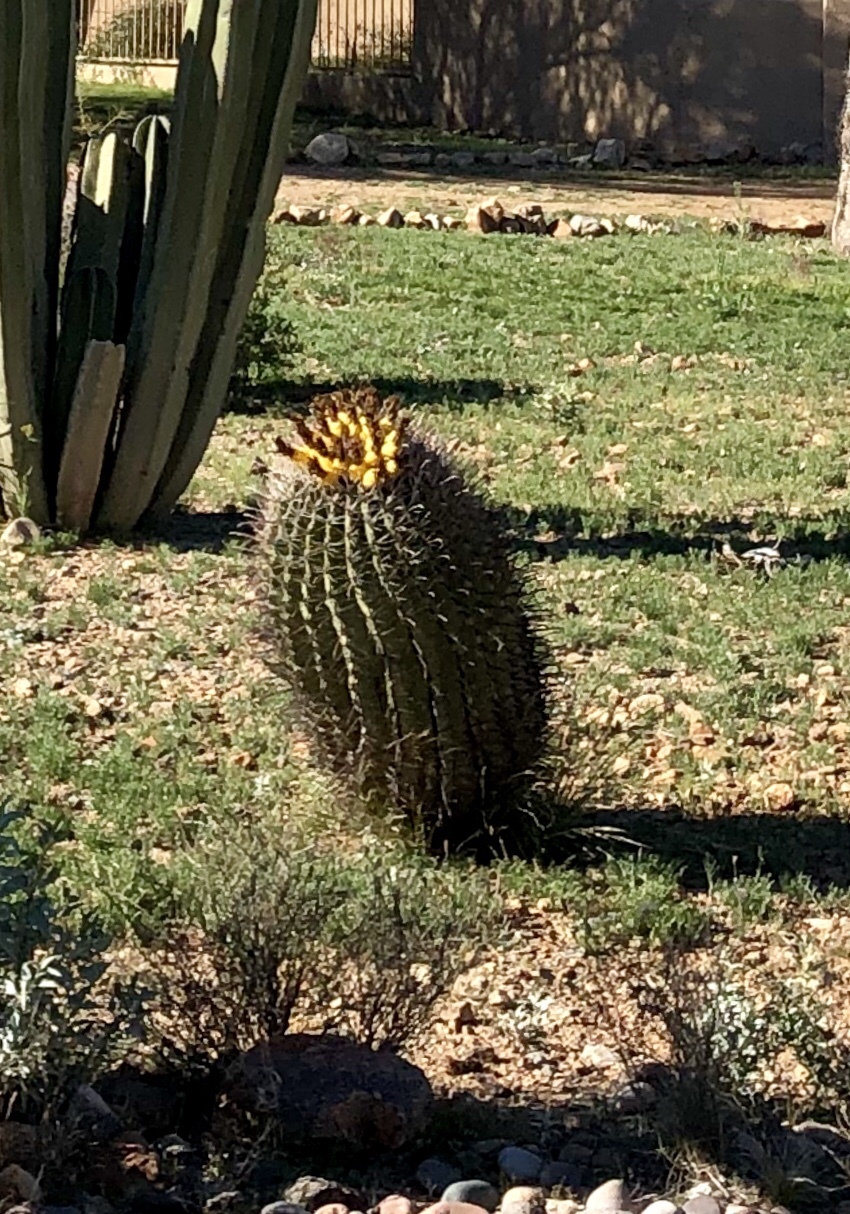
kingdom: Plantae
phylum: Tracheophyta
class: Magnoliopsida
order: Caryophyllales
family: Cactaceae
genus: Ferocactus
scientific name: Ferocactus wislizeni
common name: Candy barrel cactus
